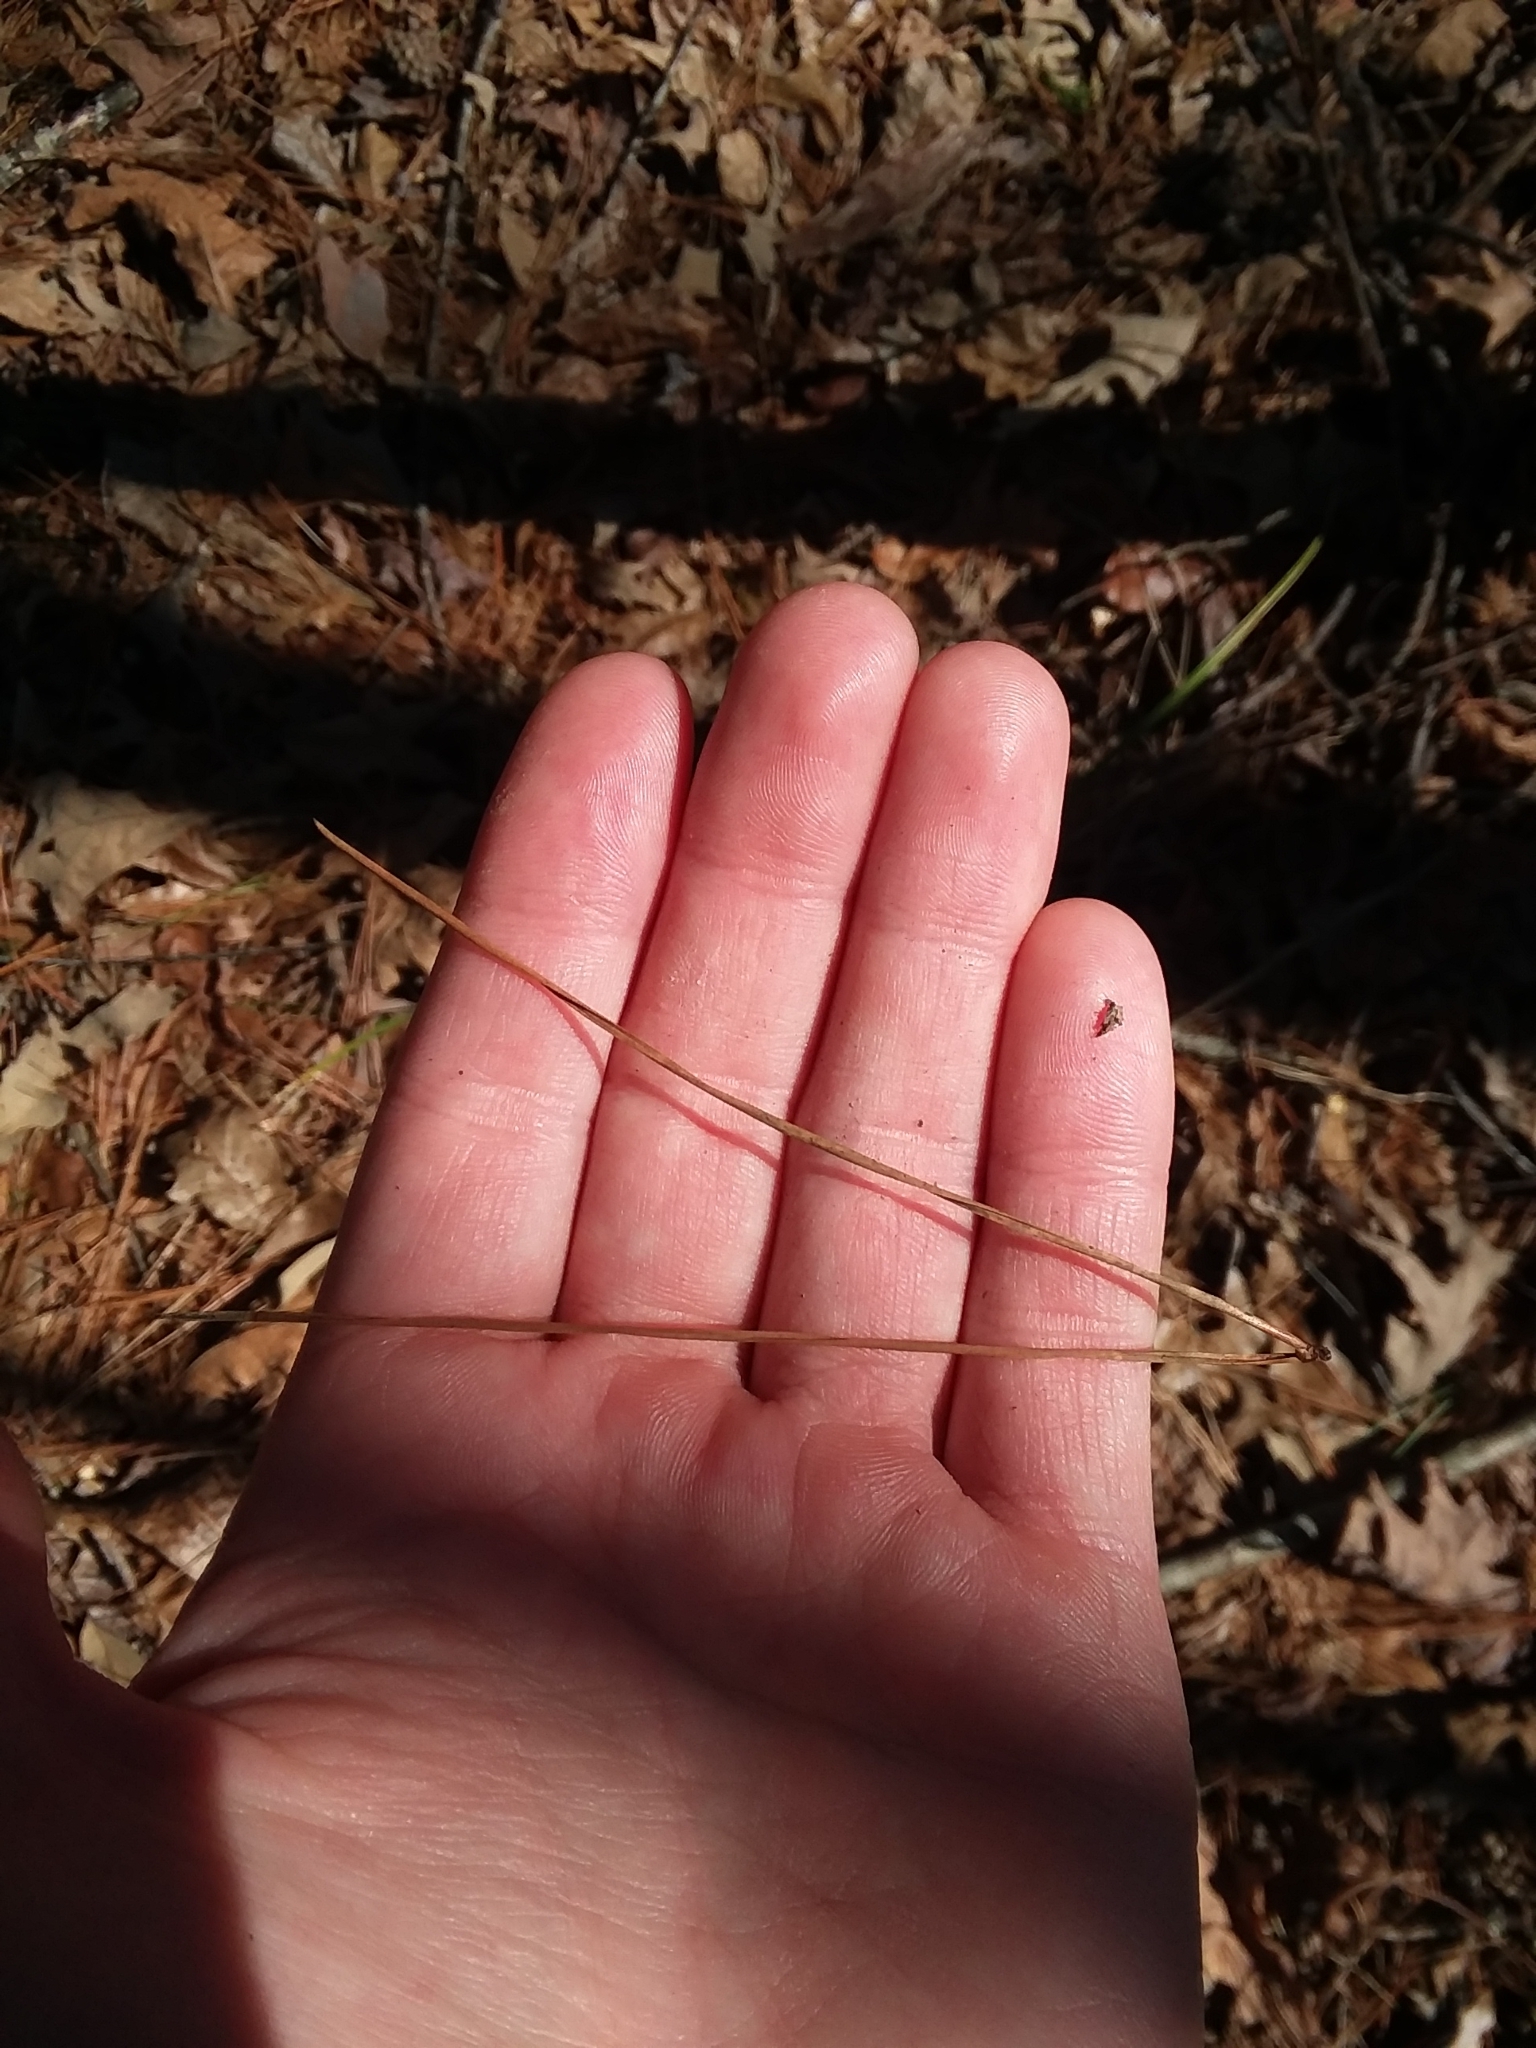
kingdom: Plantae
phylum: Tracheophyta
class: Pinopsida
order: Pinales
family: Pinaceae
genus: Pinus
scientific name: Pinus echinata
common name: Shortleaf pine
